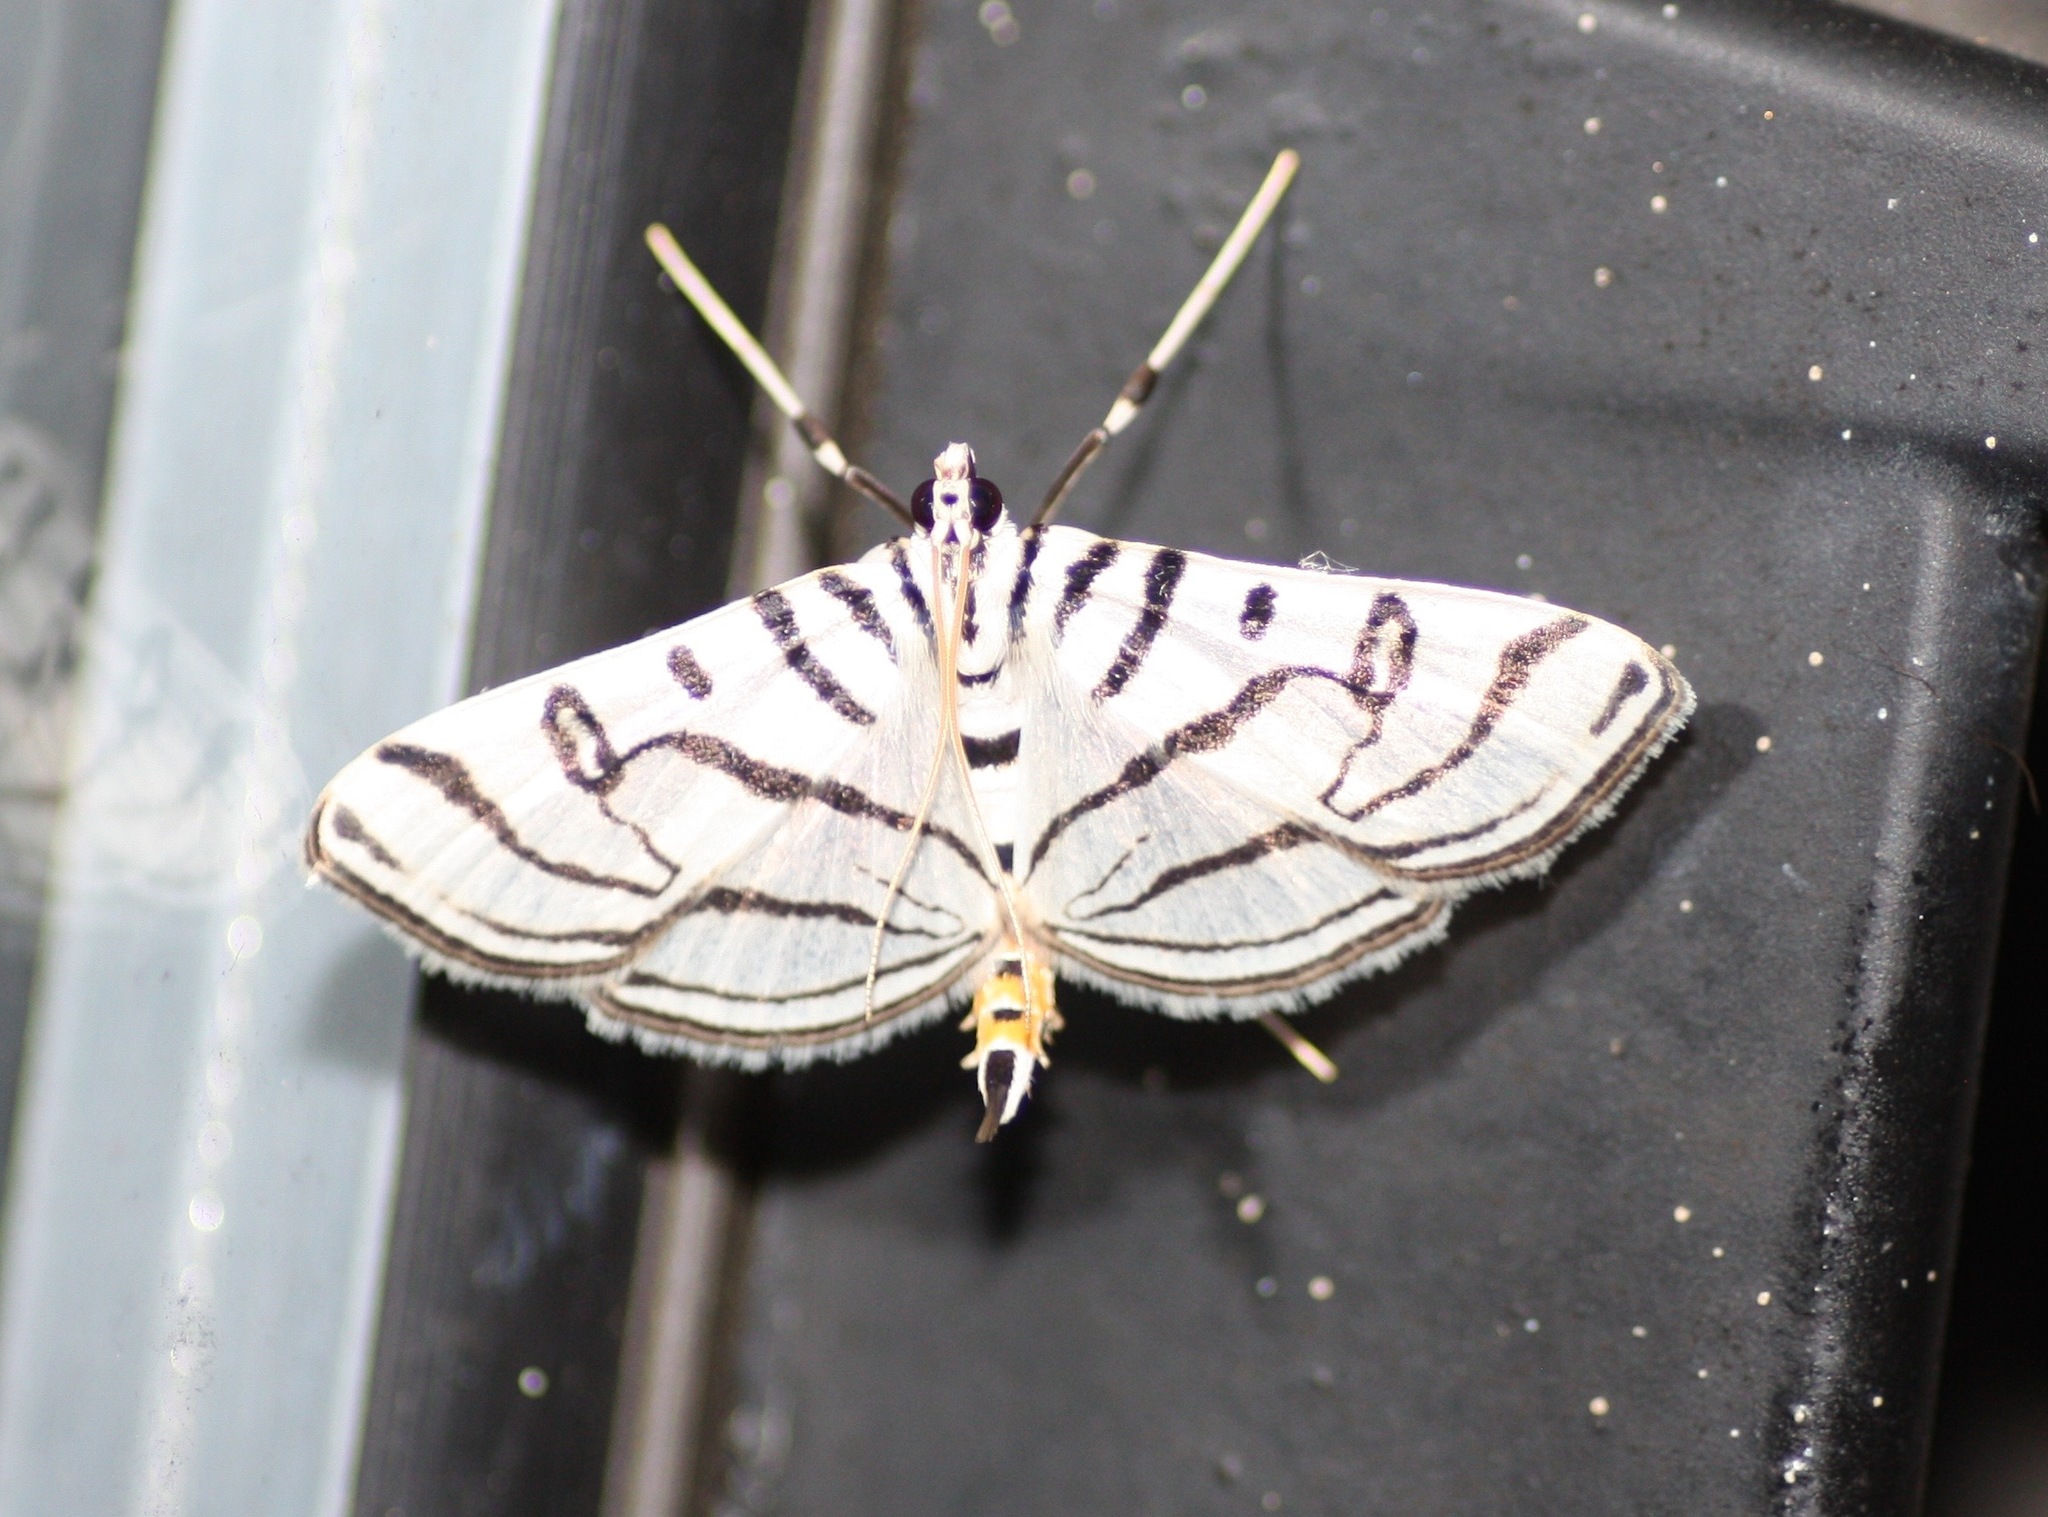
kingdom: Animalia
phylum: Arthropoda
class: Insecta
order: Lepidoptera
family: Crambidae
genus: Conchylodes
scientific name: Conchylodes ovulalis
